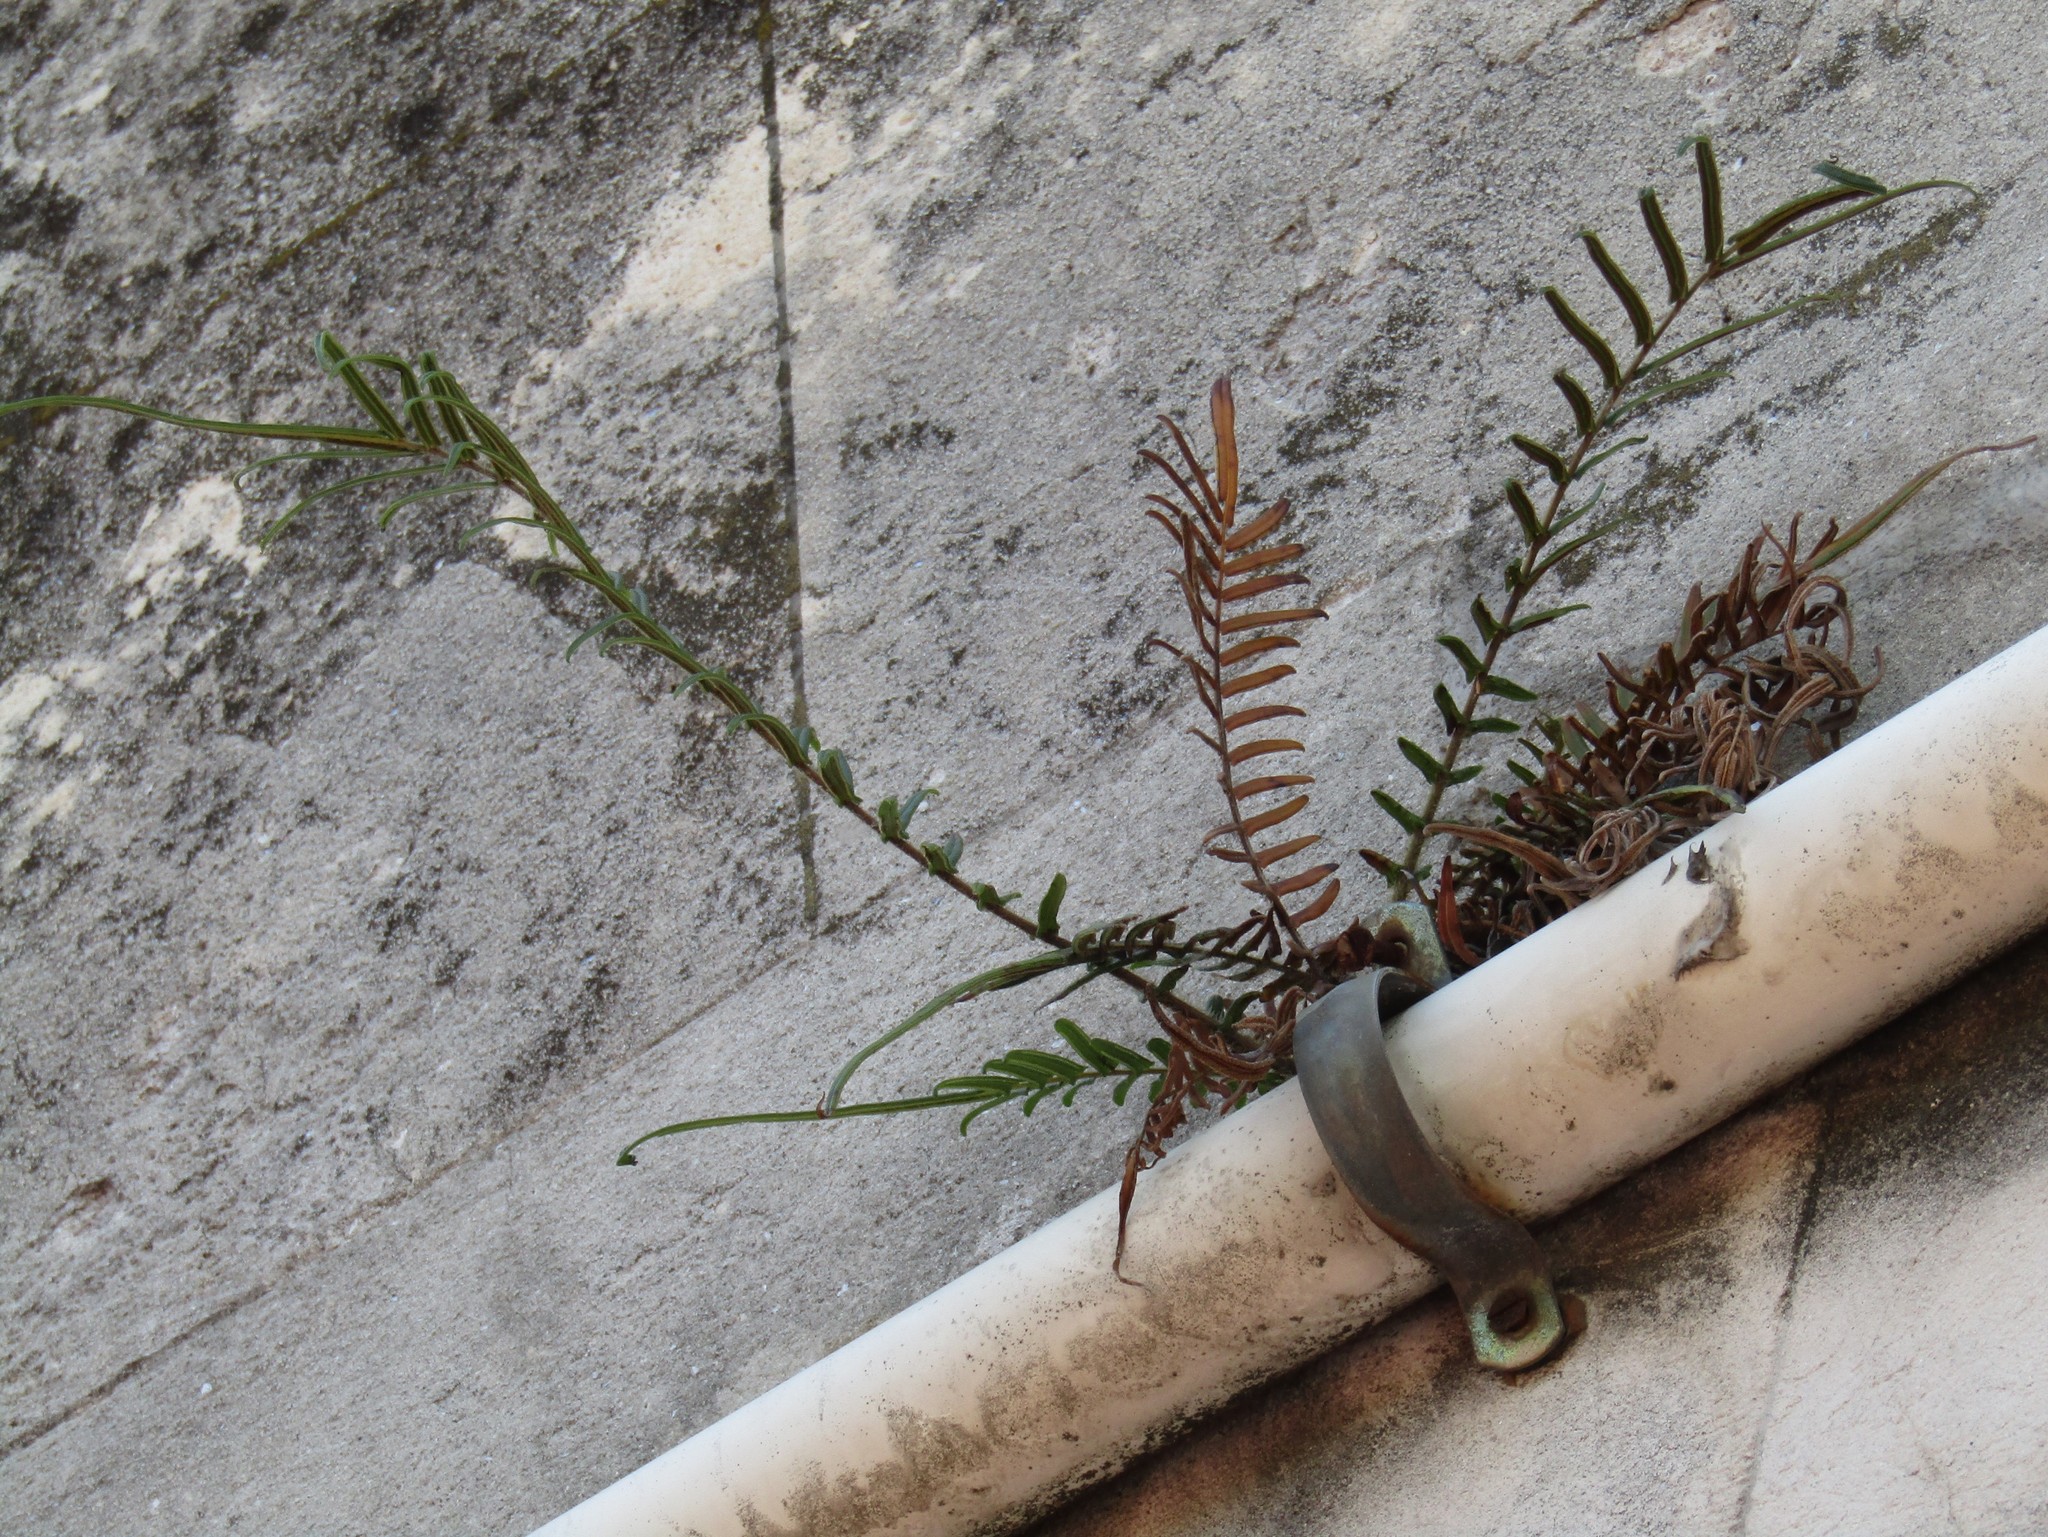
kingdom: Plantae
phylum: Tracheophyta
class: Polypodiopsida
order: Polypodiales
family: Pteridaceae
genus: Pteris
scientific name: Pteris vittata
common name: Ladder brake
